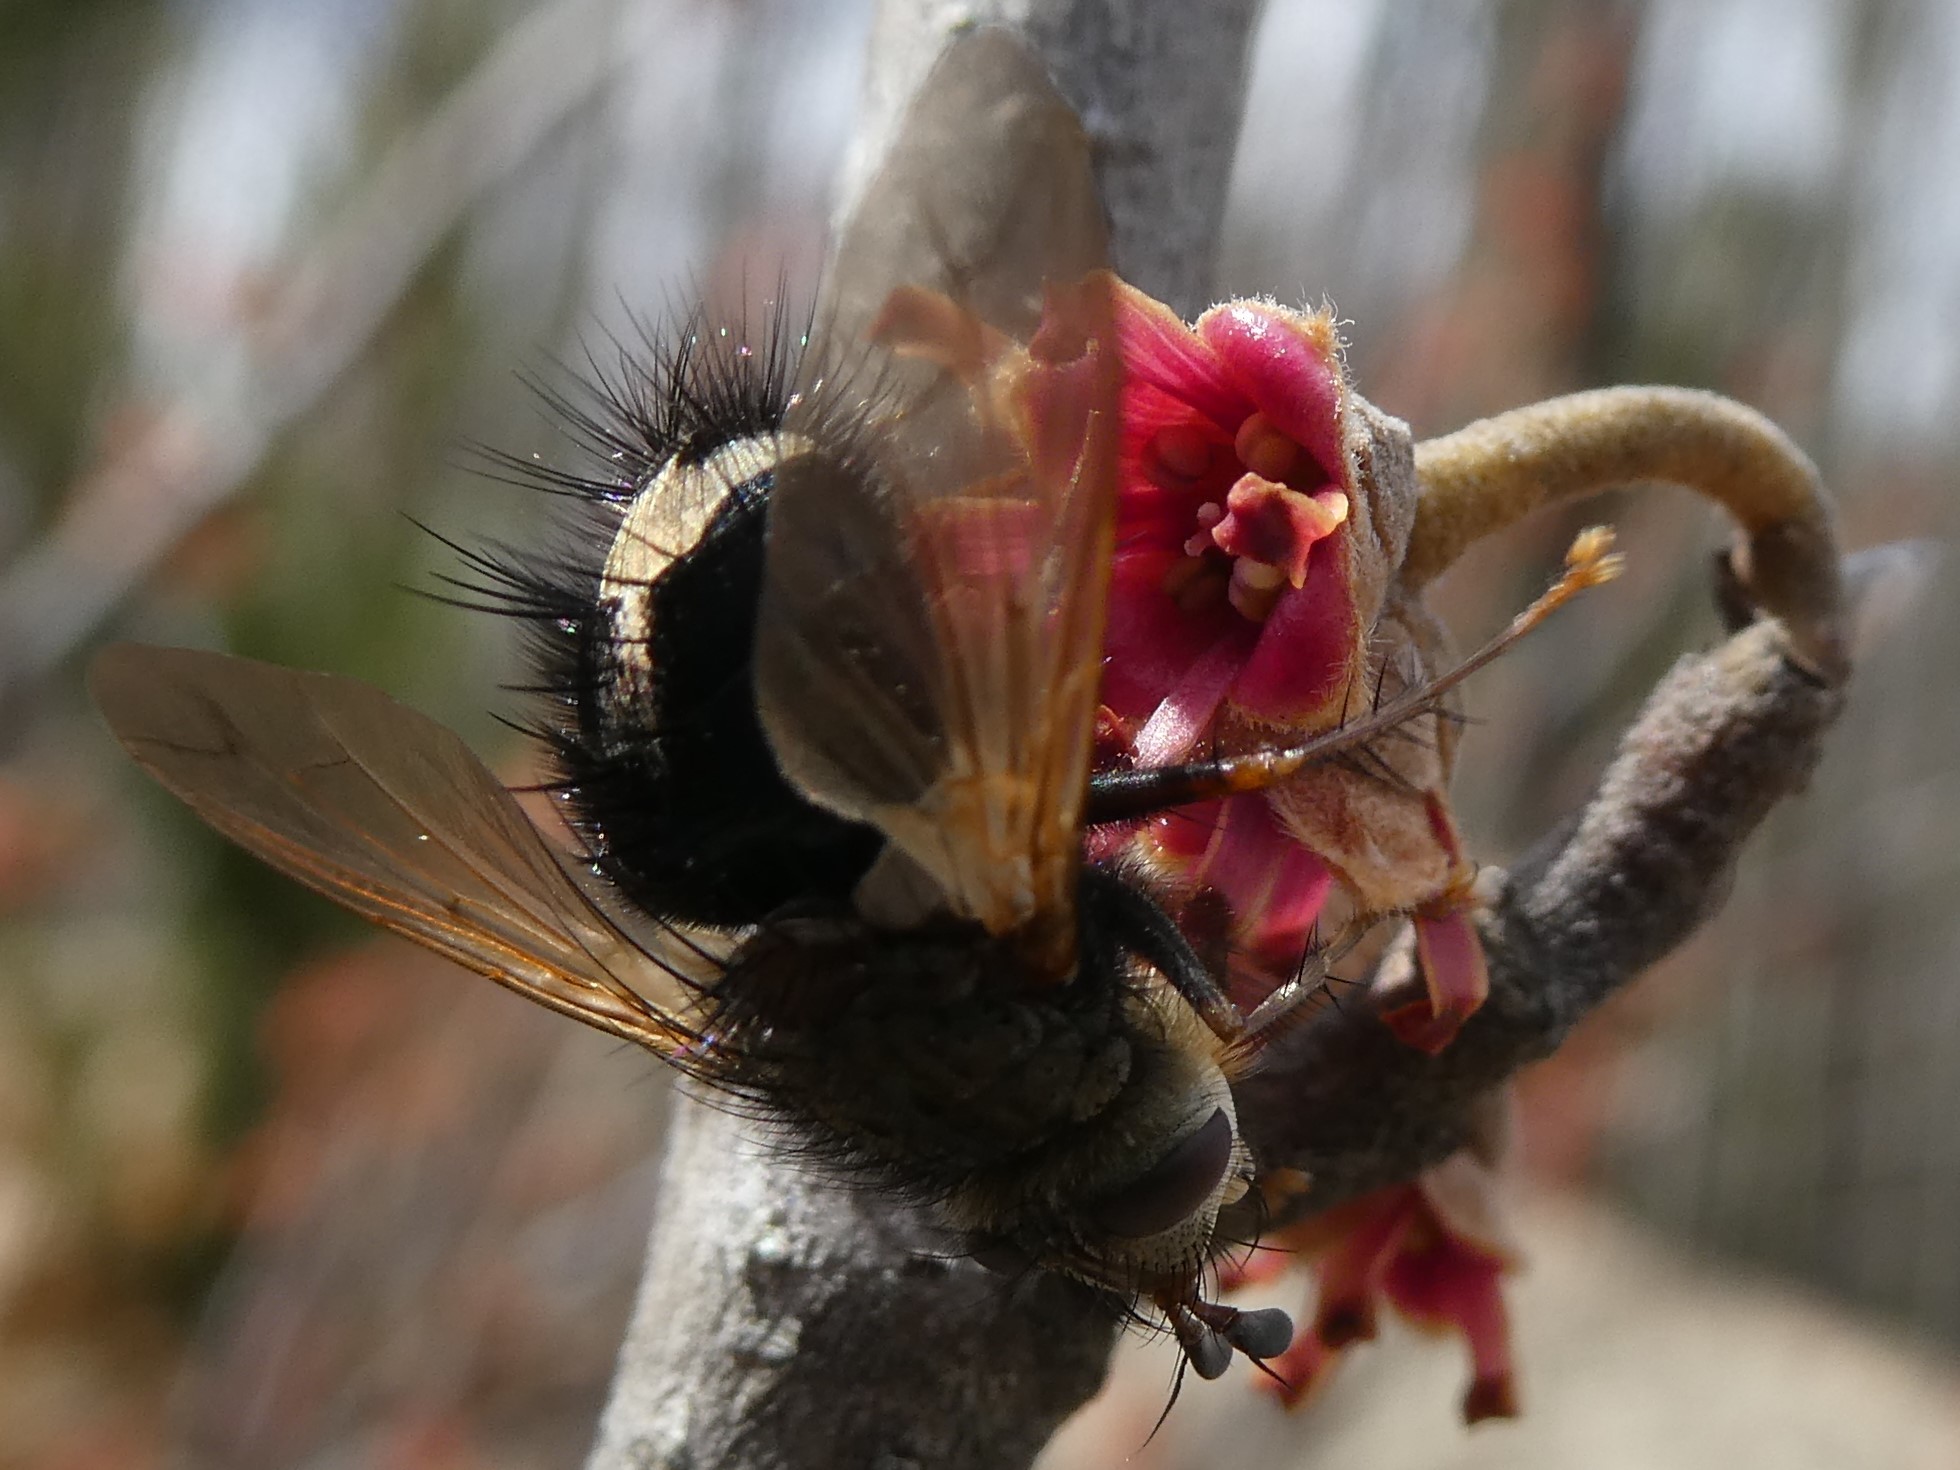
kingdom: Animalia
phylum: Arthropoda
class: Insecta
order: Diptera
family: Tachinidae
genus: Epalpus
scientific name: Epalpus signifer
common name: Early tachinid fly
